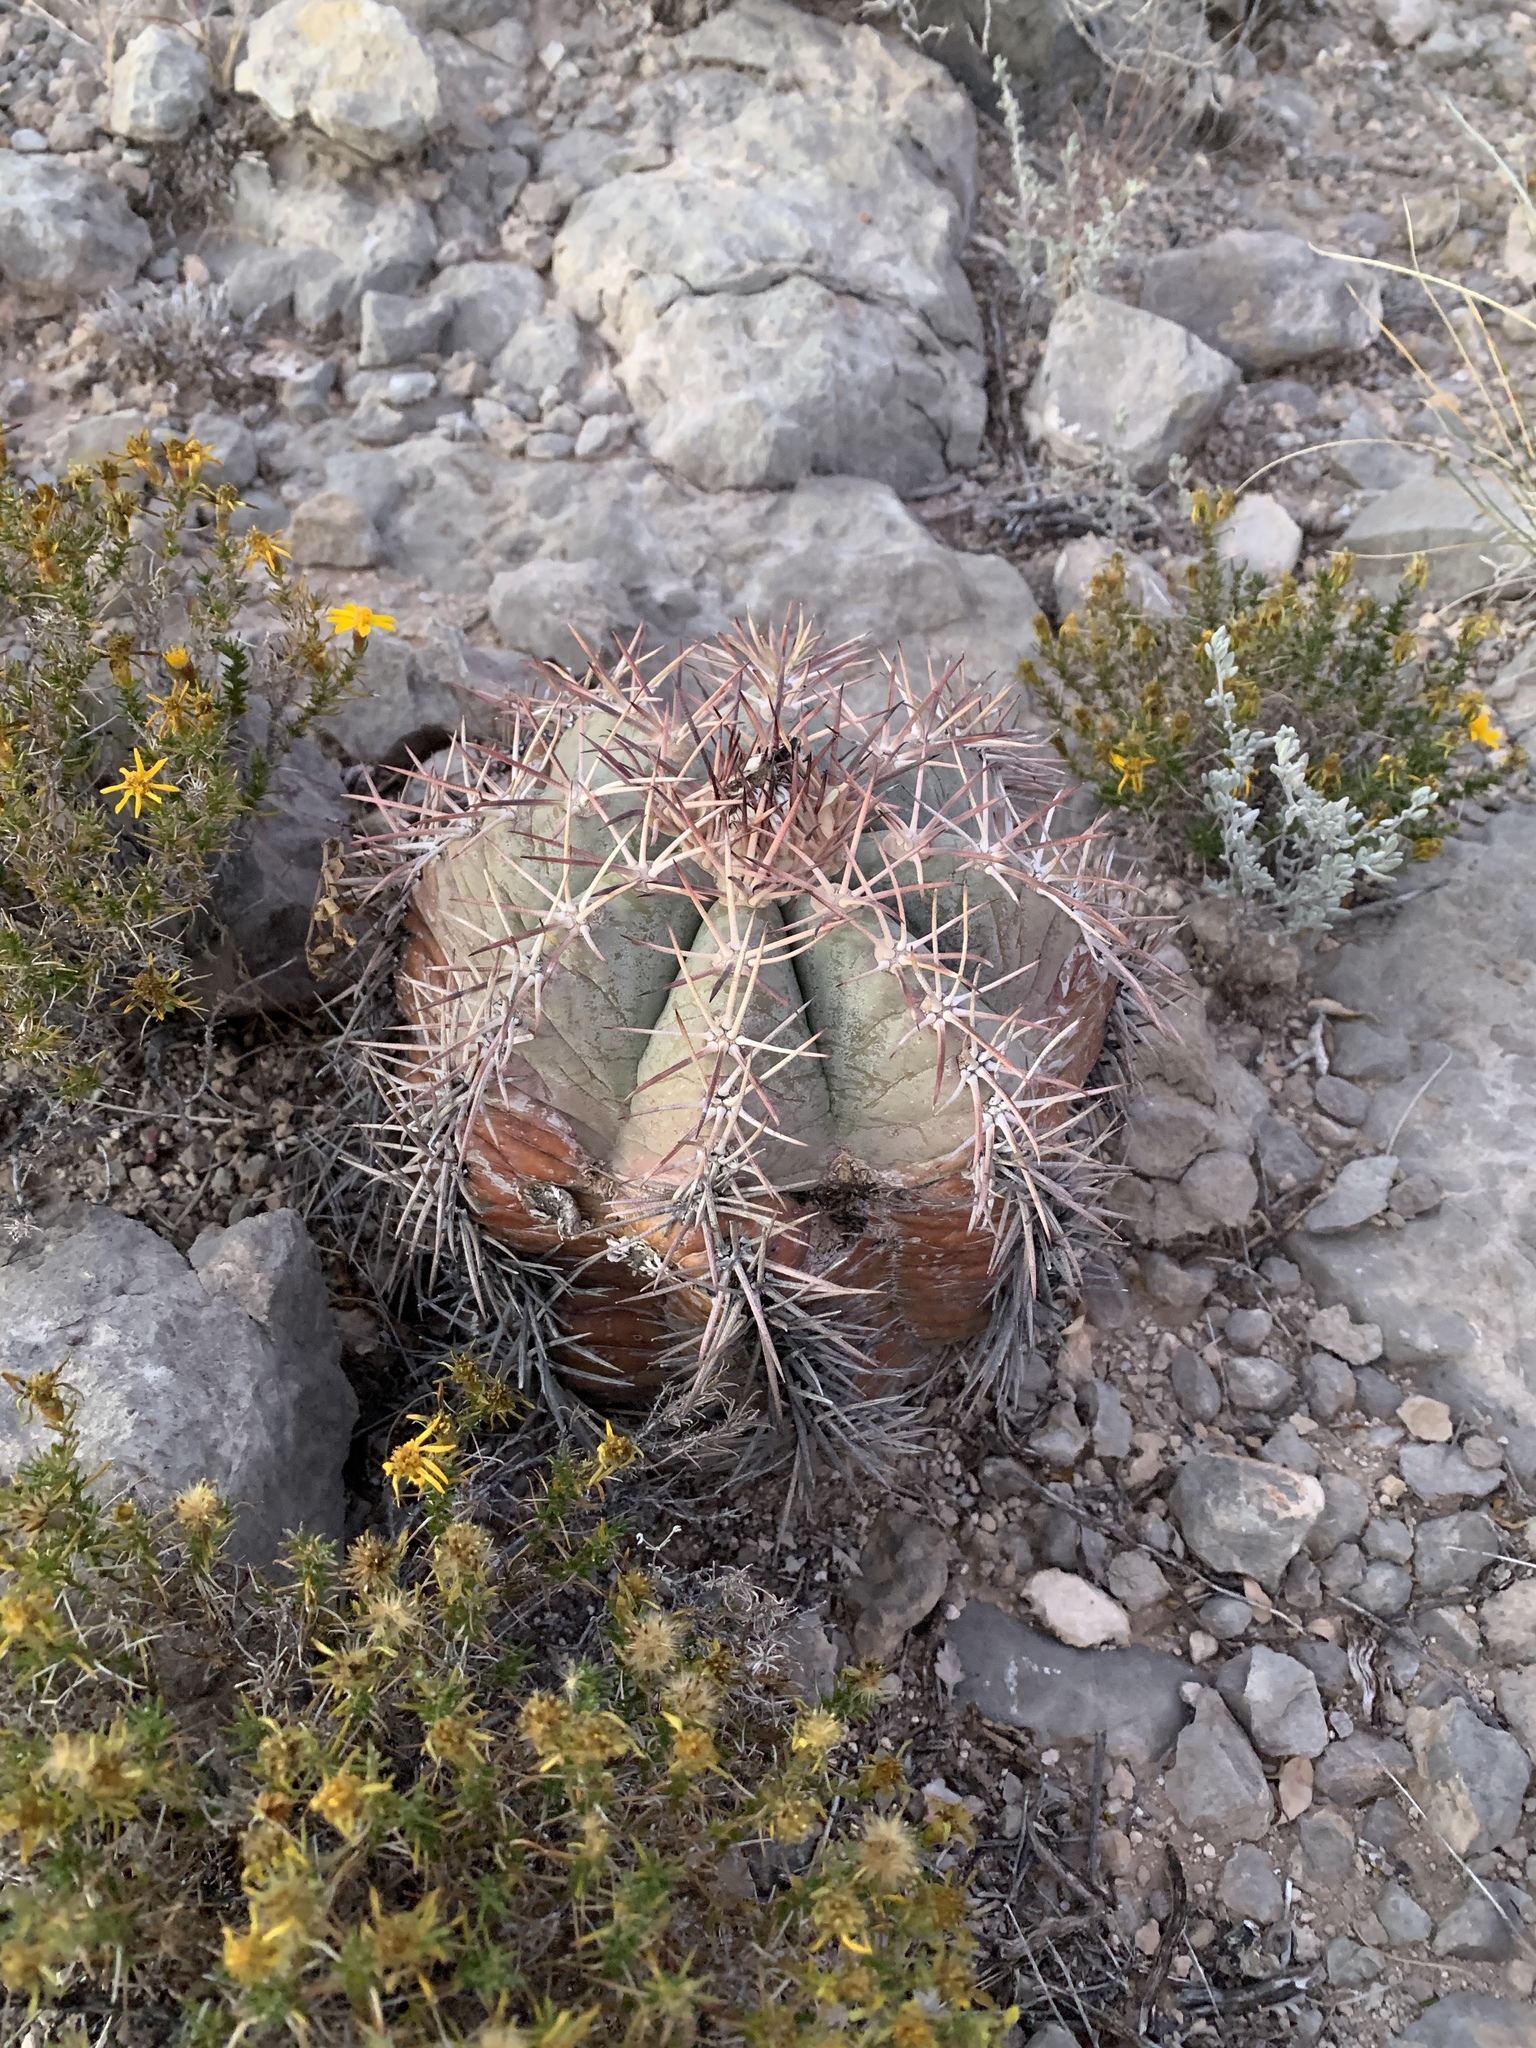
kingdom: Plantae
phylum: Tracheophyta
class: Magnoliopsida
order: Caryophyllales
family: Cactaceae
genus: Echinocactus
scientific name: Echinocactus horizonthalonius
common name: Devilshead
